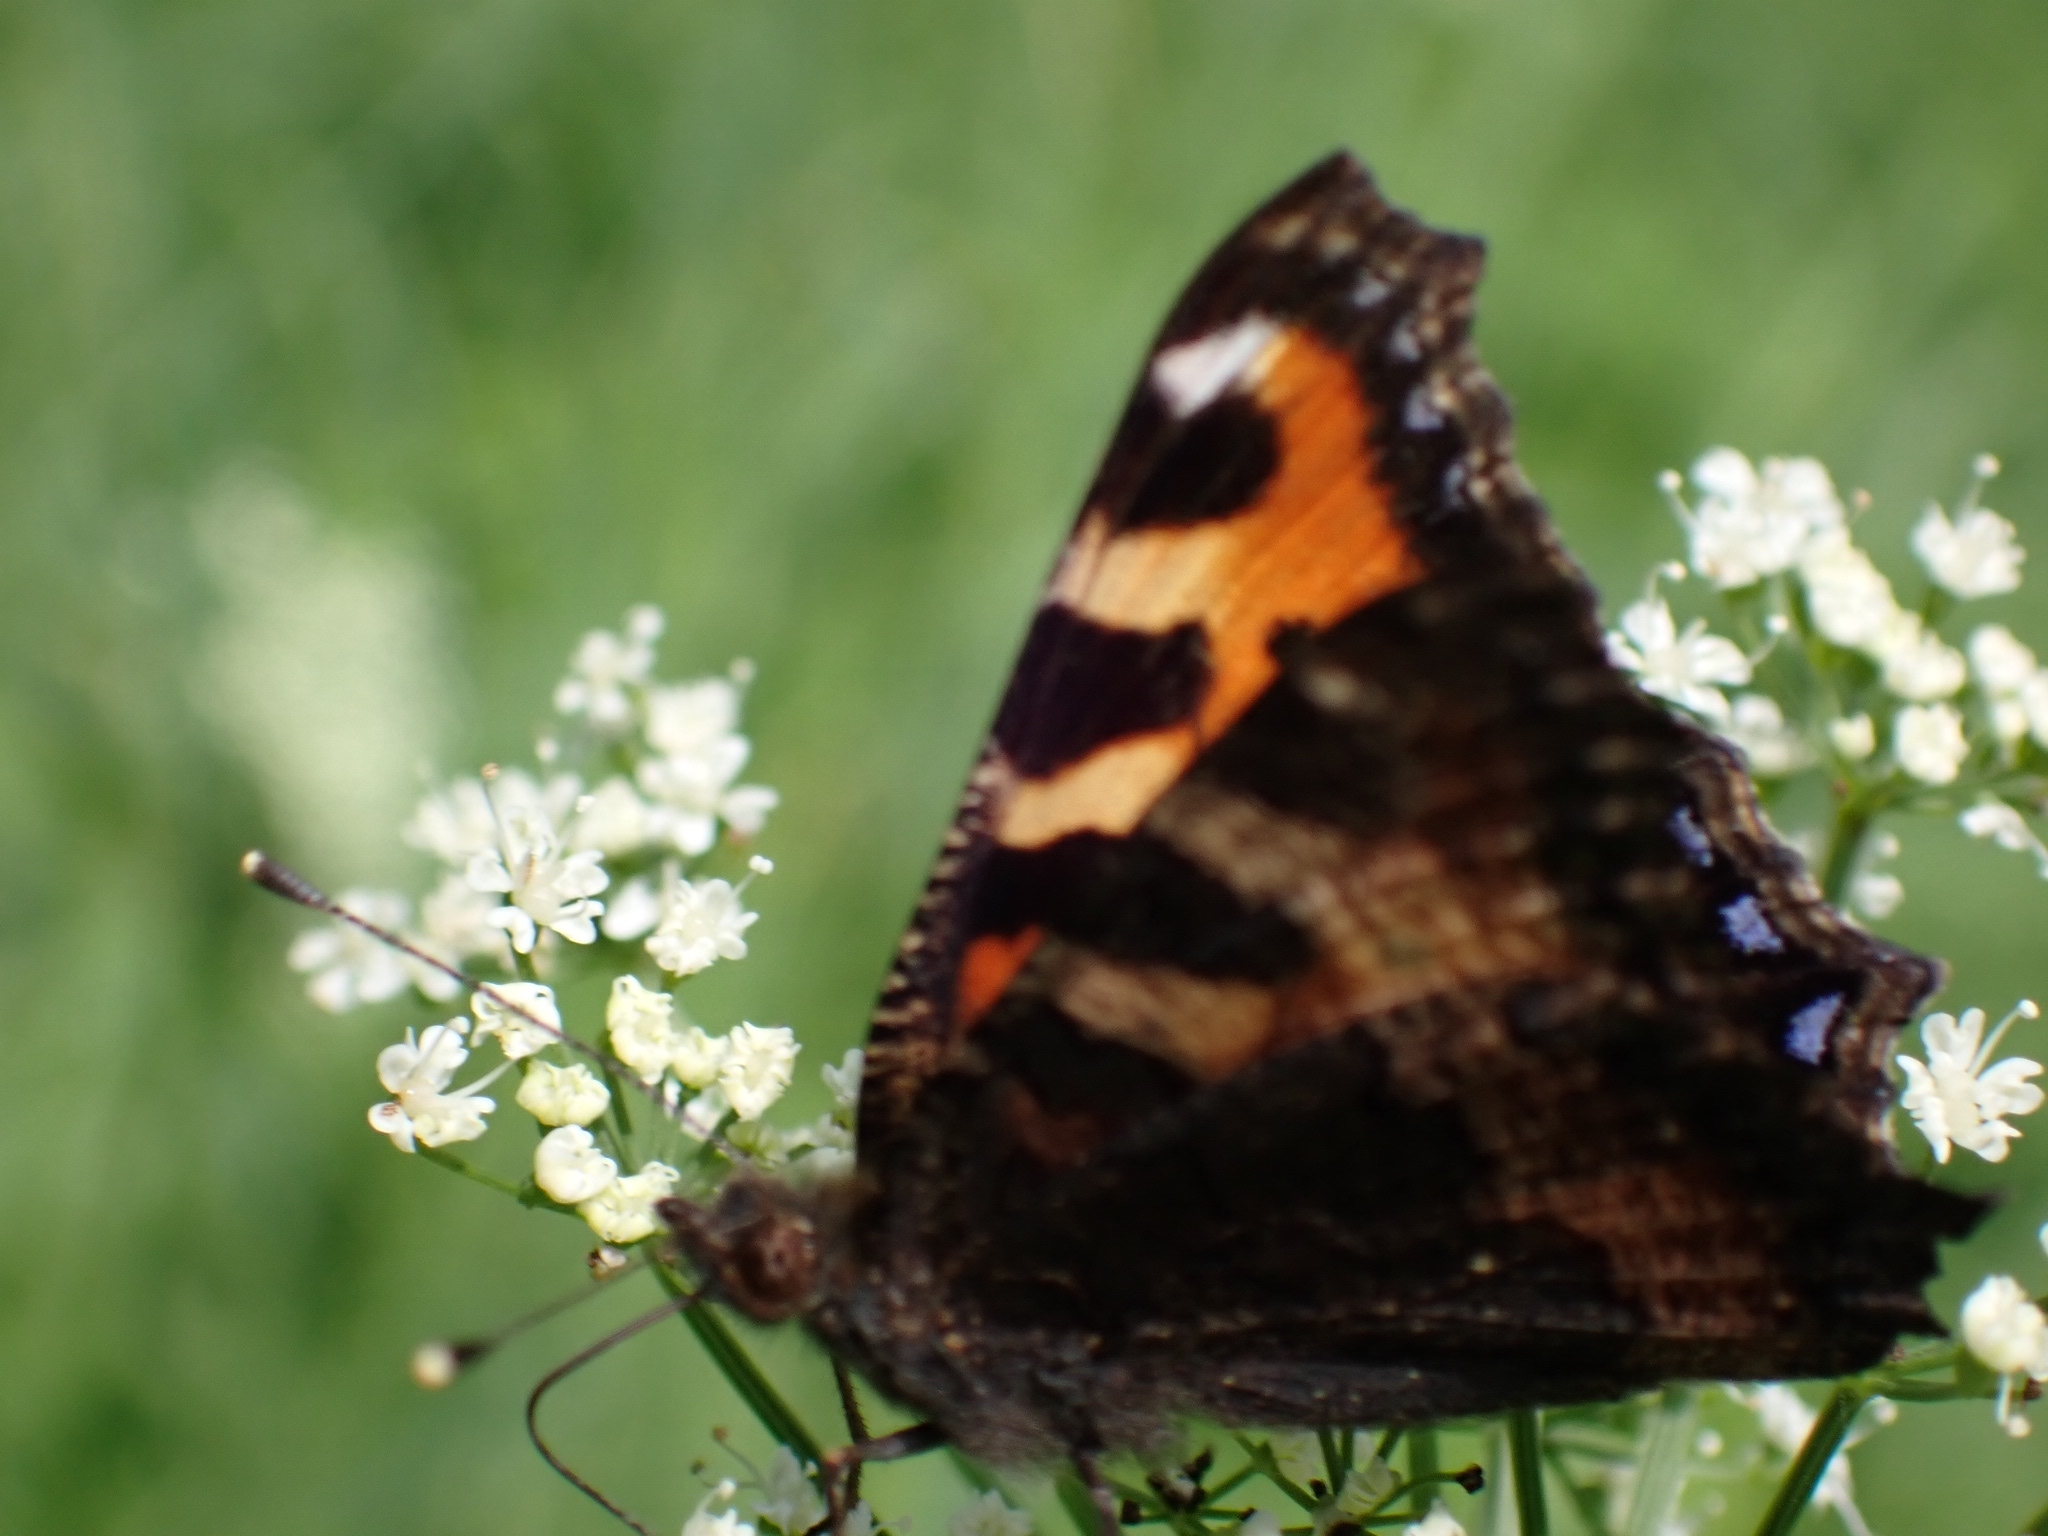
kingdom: Animalia
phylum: Arthropoda
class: Insecta
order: Lepidoptera
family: Nymphalidae
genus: Aglais
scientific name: Aglais urticae
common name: Small tortoiseshell
